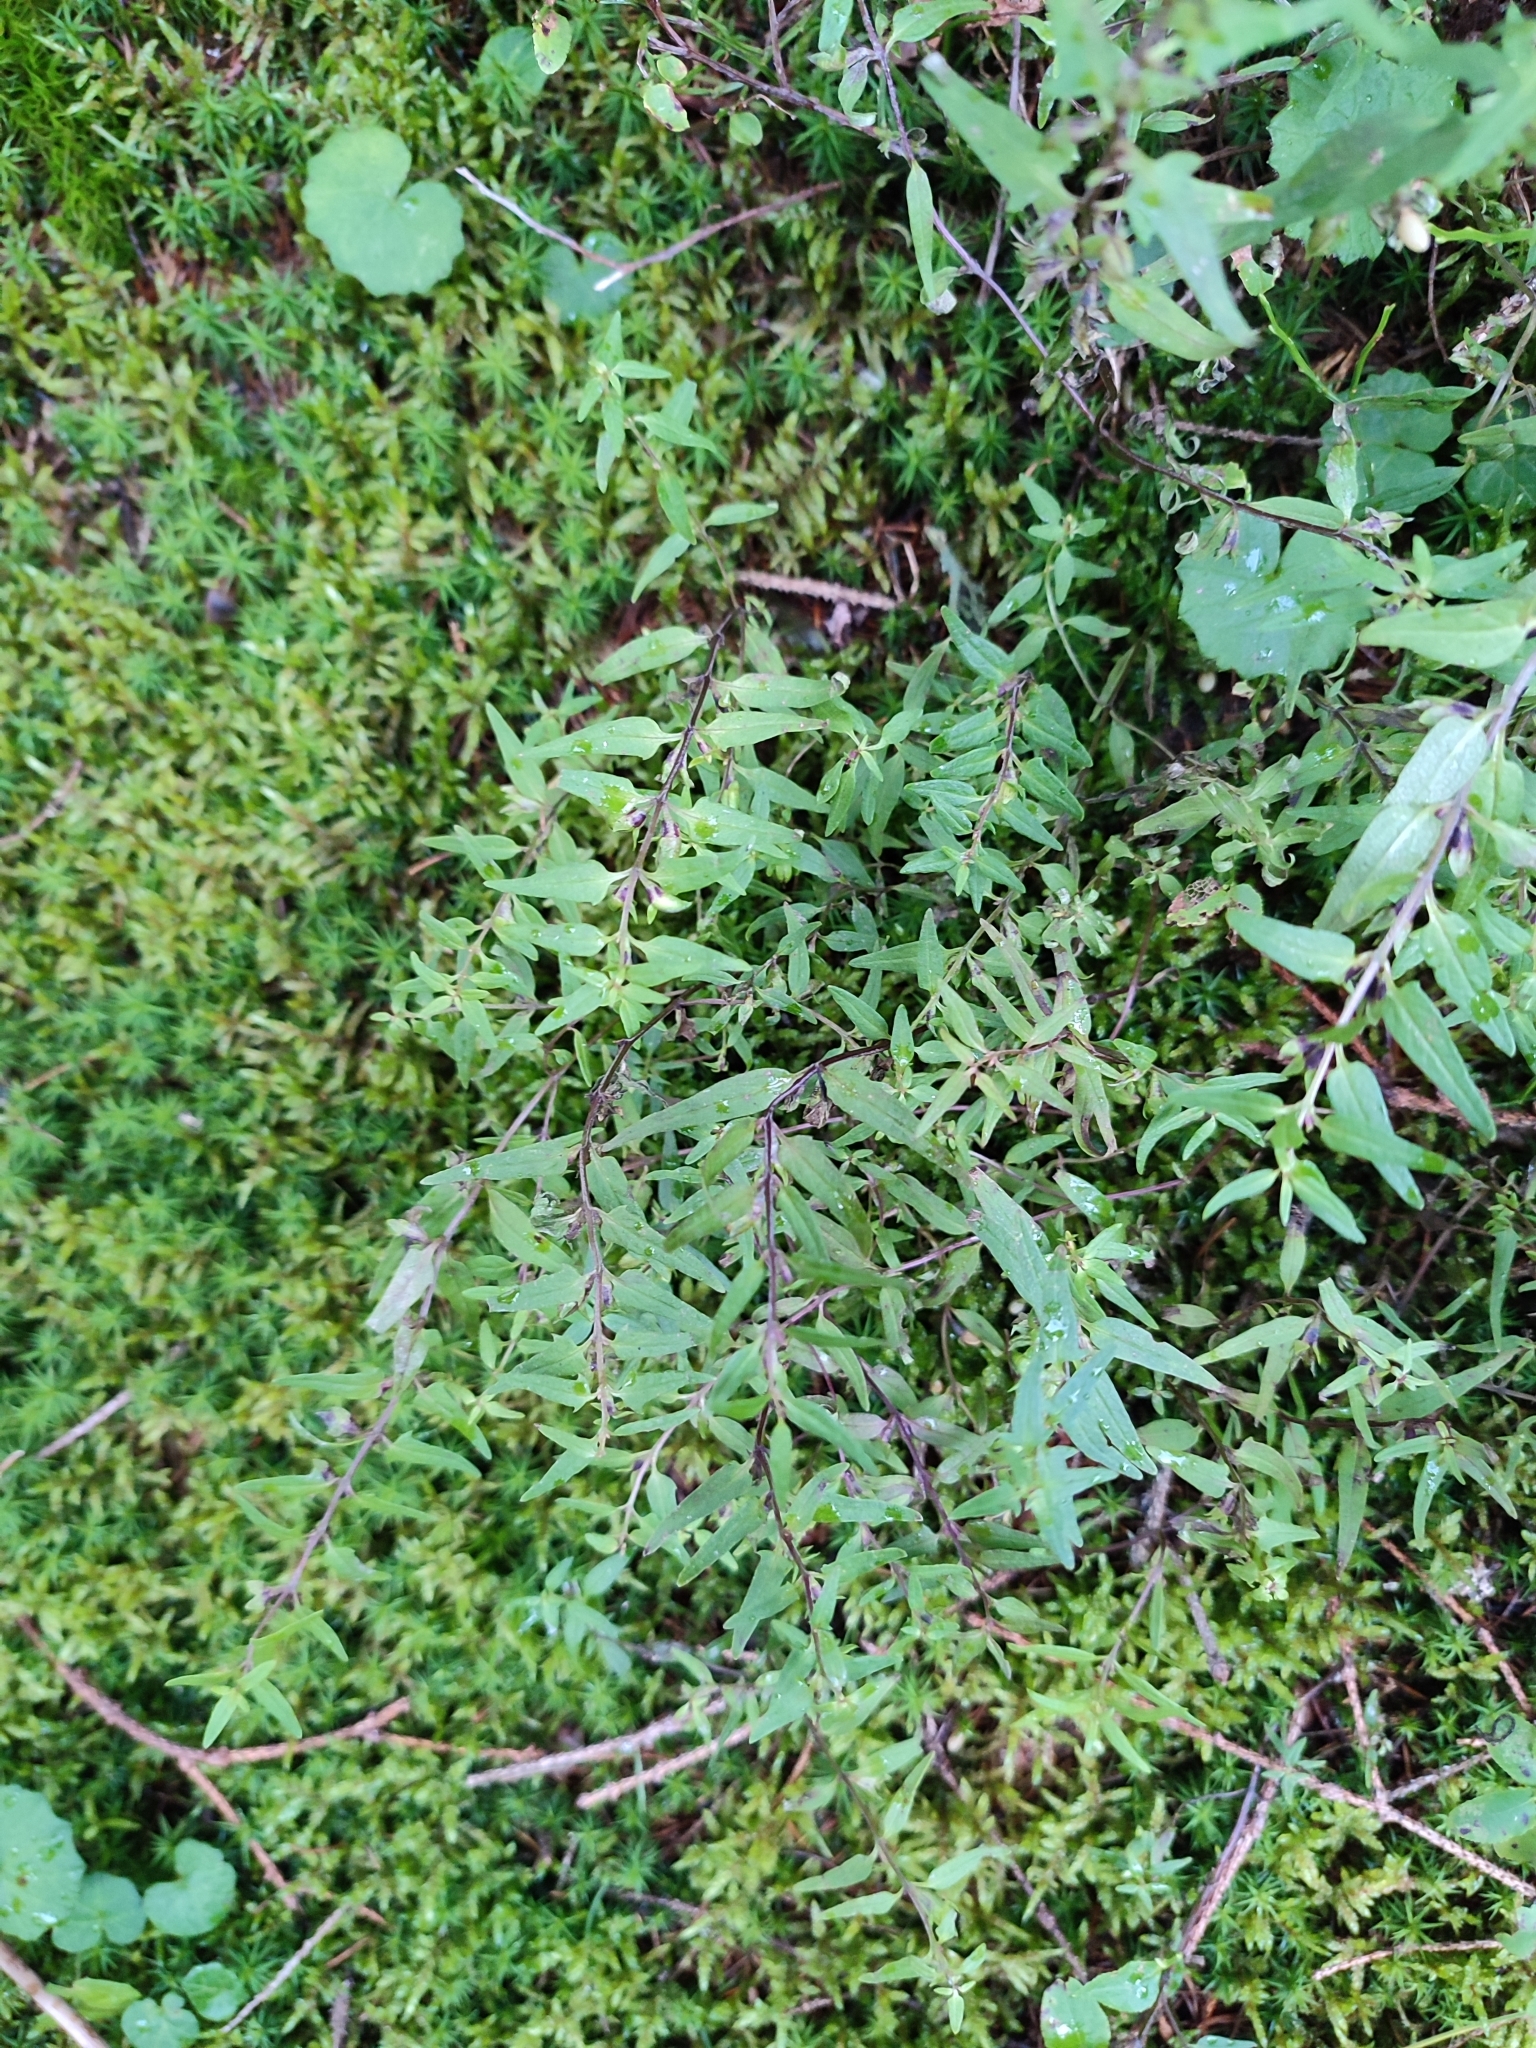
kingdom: Plantae
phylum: Tracheophyta
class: Magnoliopsida
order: Lamiales
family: Orobanchaceae
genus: Melampyrum
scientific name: Melampyrum sylvaticum
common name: Small cow-wheat
